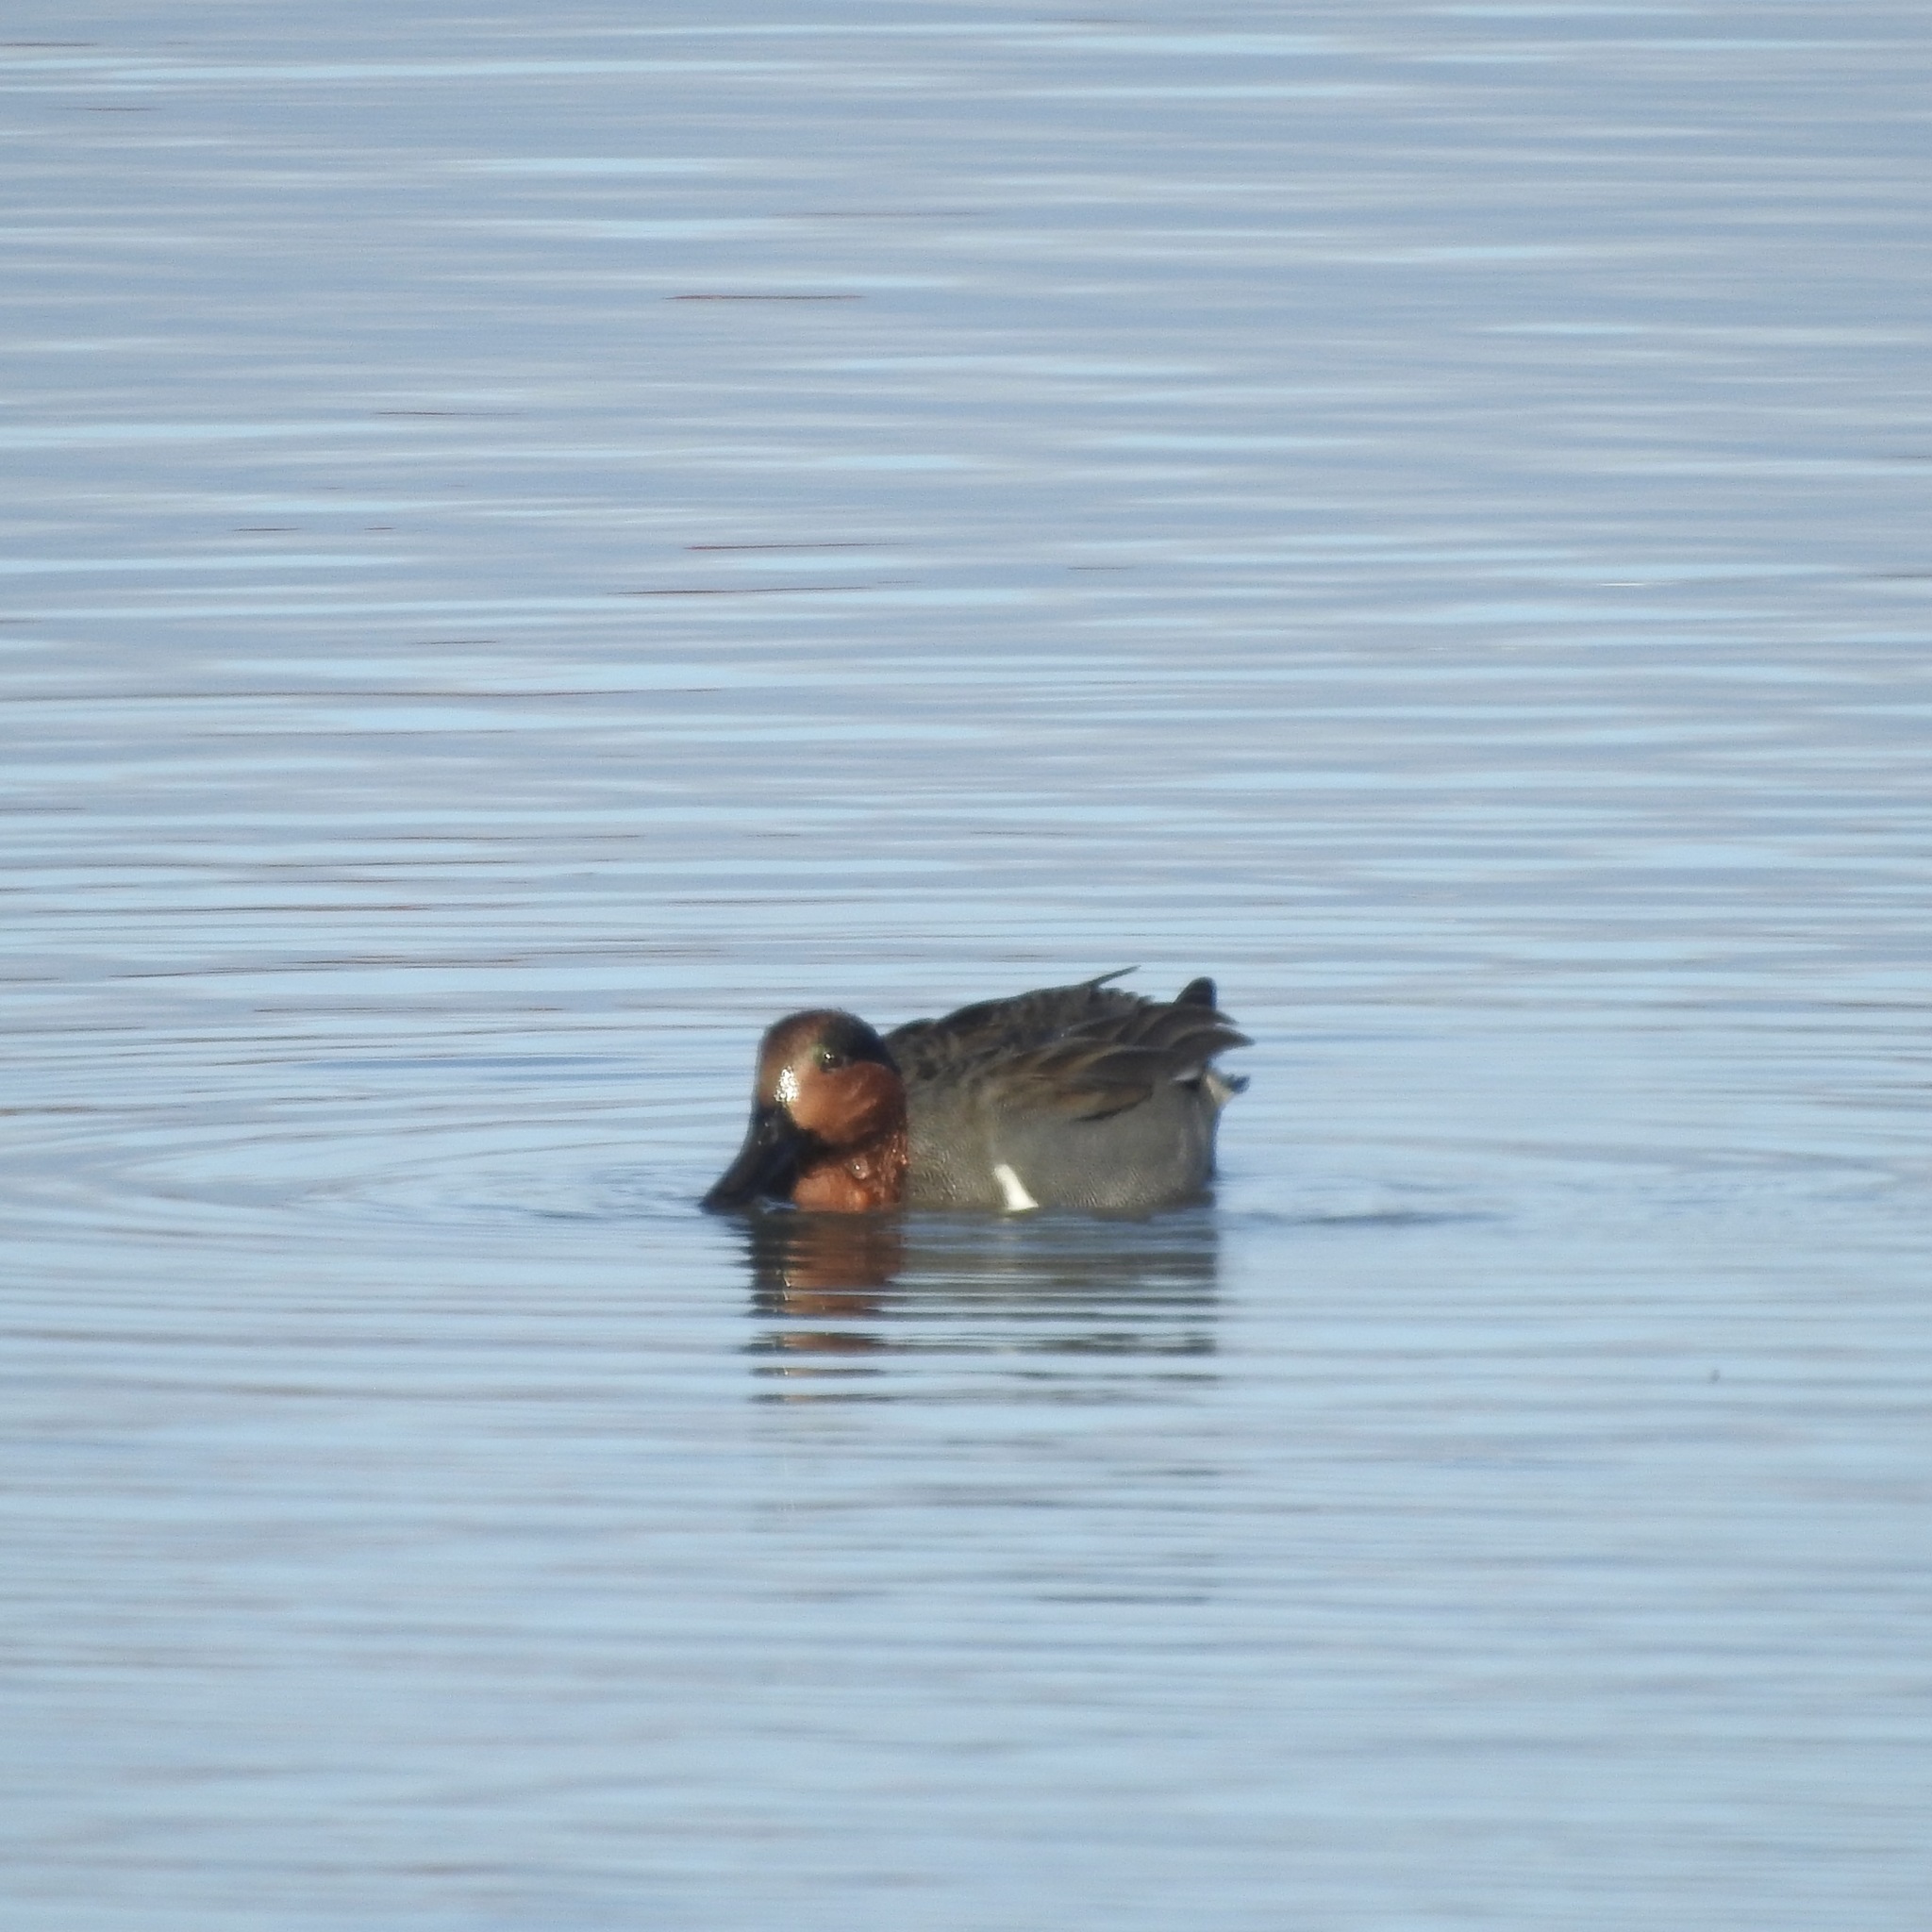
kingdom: Animalia
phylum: Chordata
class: Aves
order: Anseriformes
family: Anatidae
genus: Anas
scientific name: Anas crecca
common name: Eurasian teal
